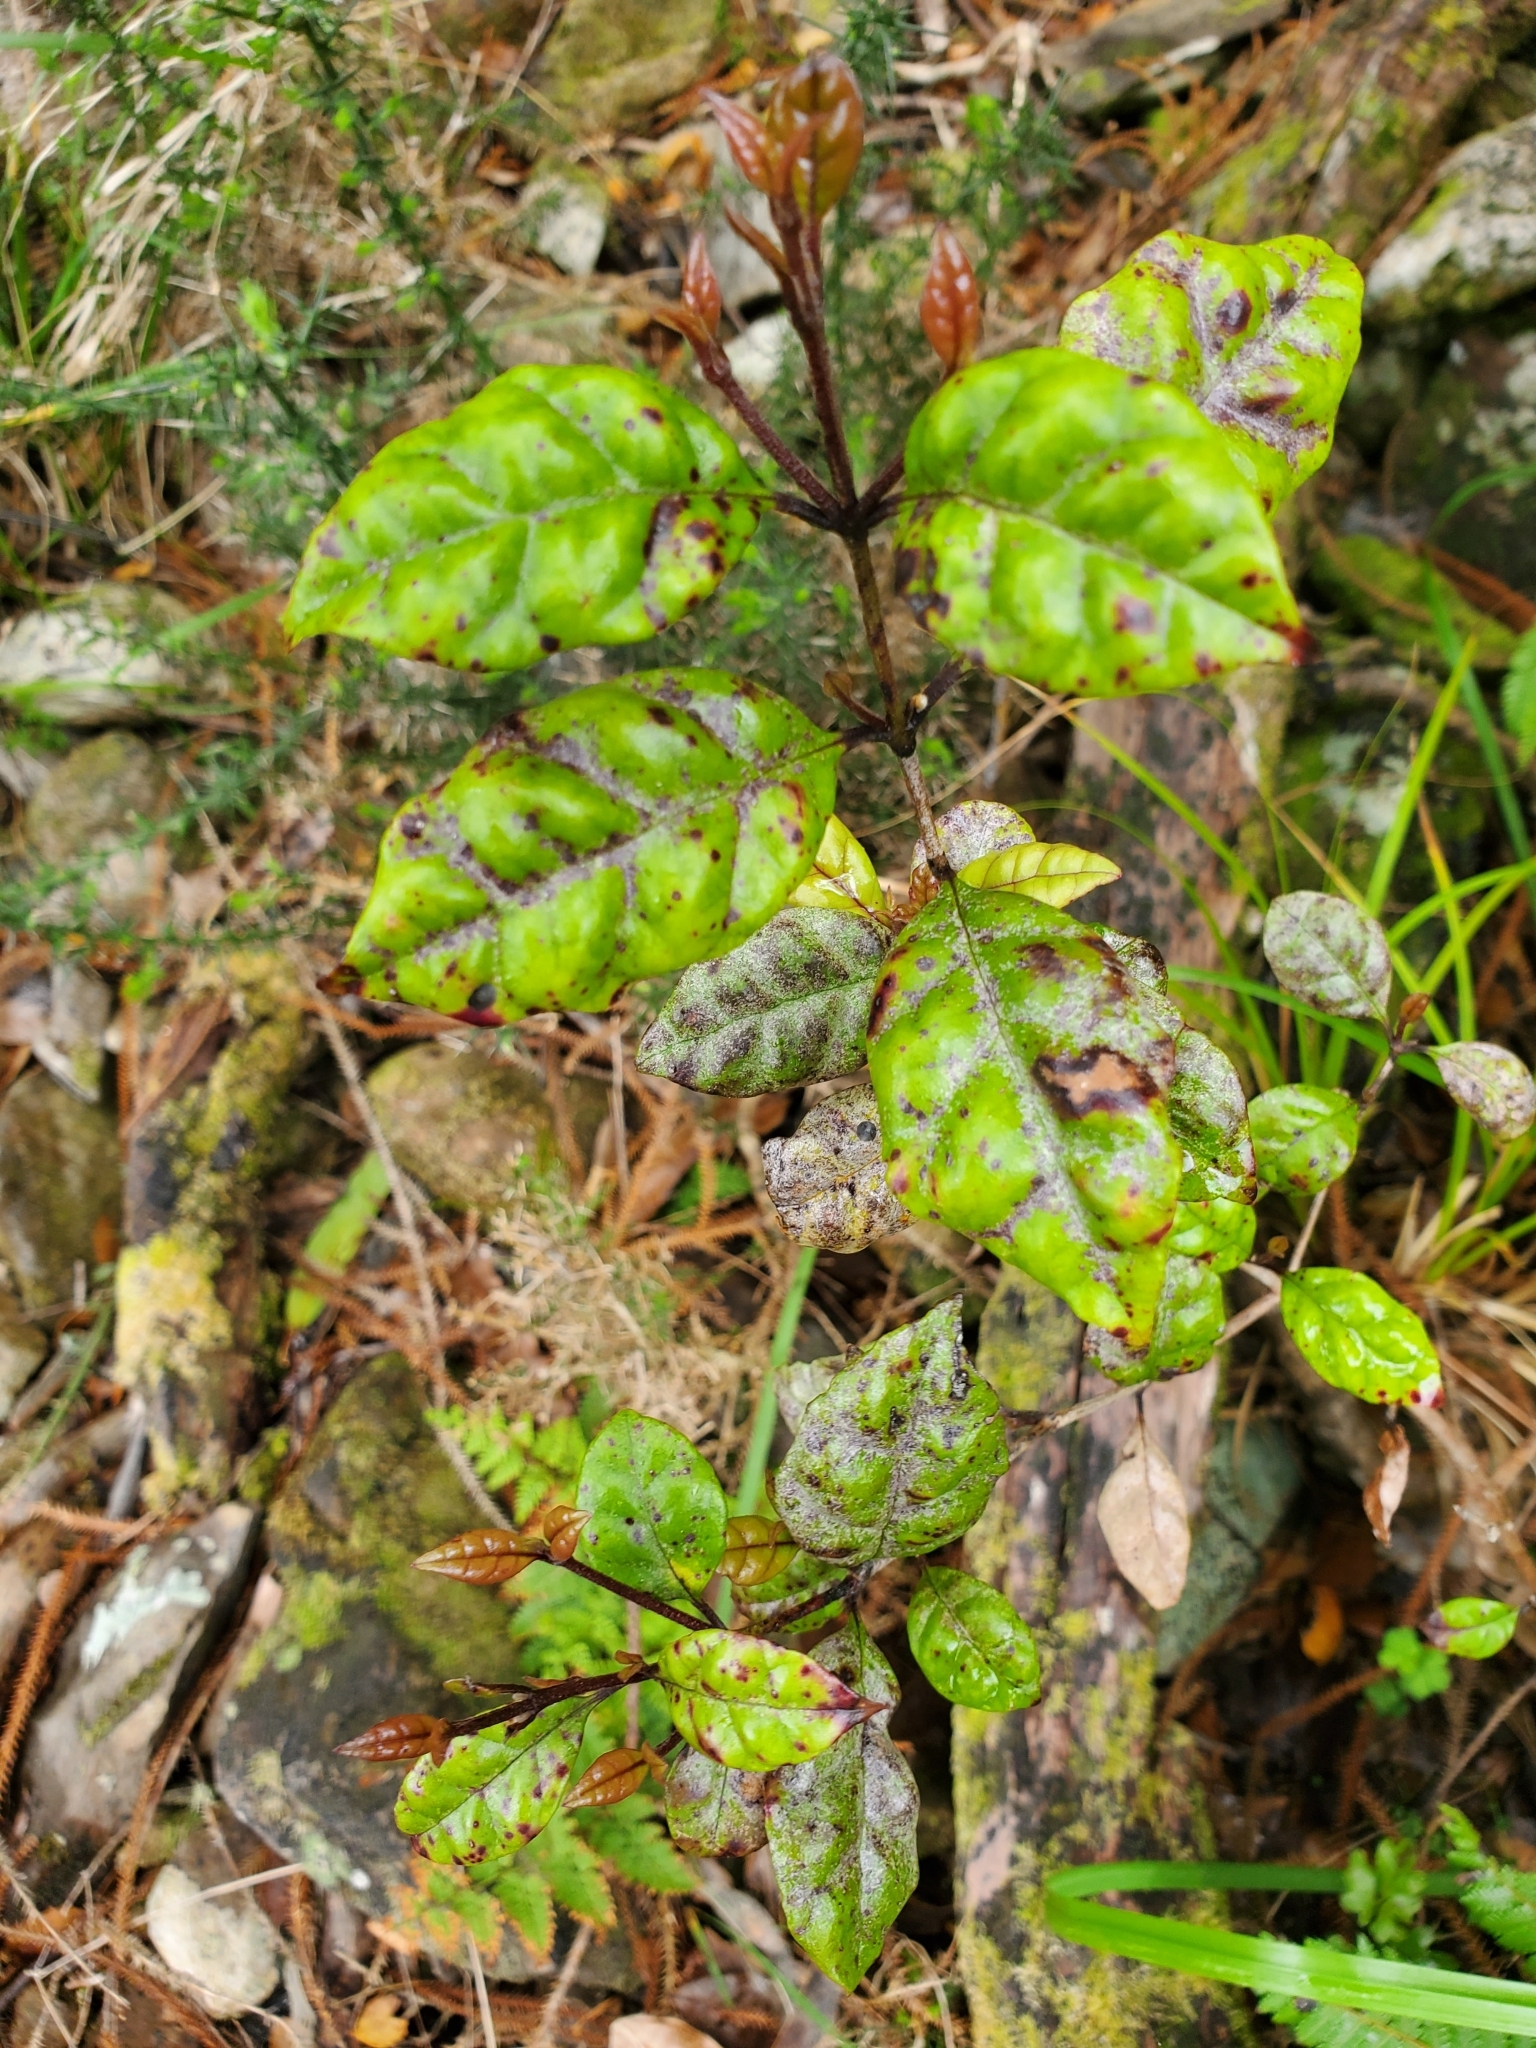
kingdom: Plantae
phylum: Tracheophyta
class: Magnoliopsida
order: Myrtales
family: Myrtaceae
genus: Lophomyrtus
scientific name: Lophomyrtus bullata
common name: Rama rama
